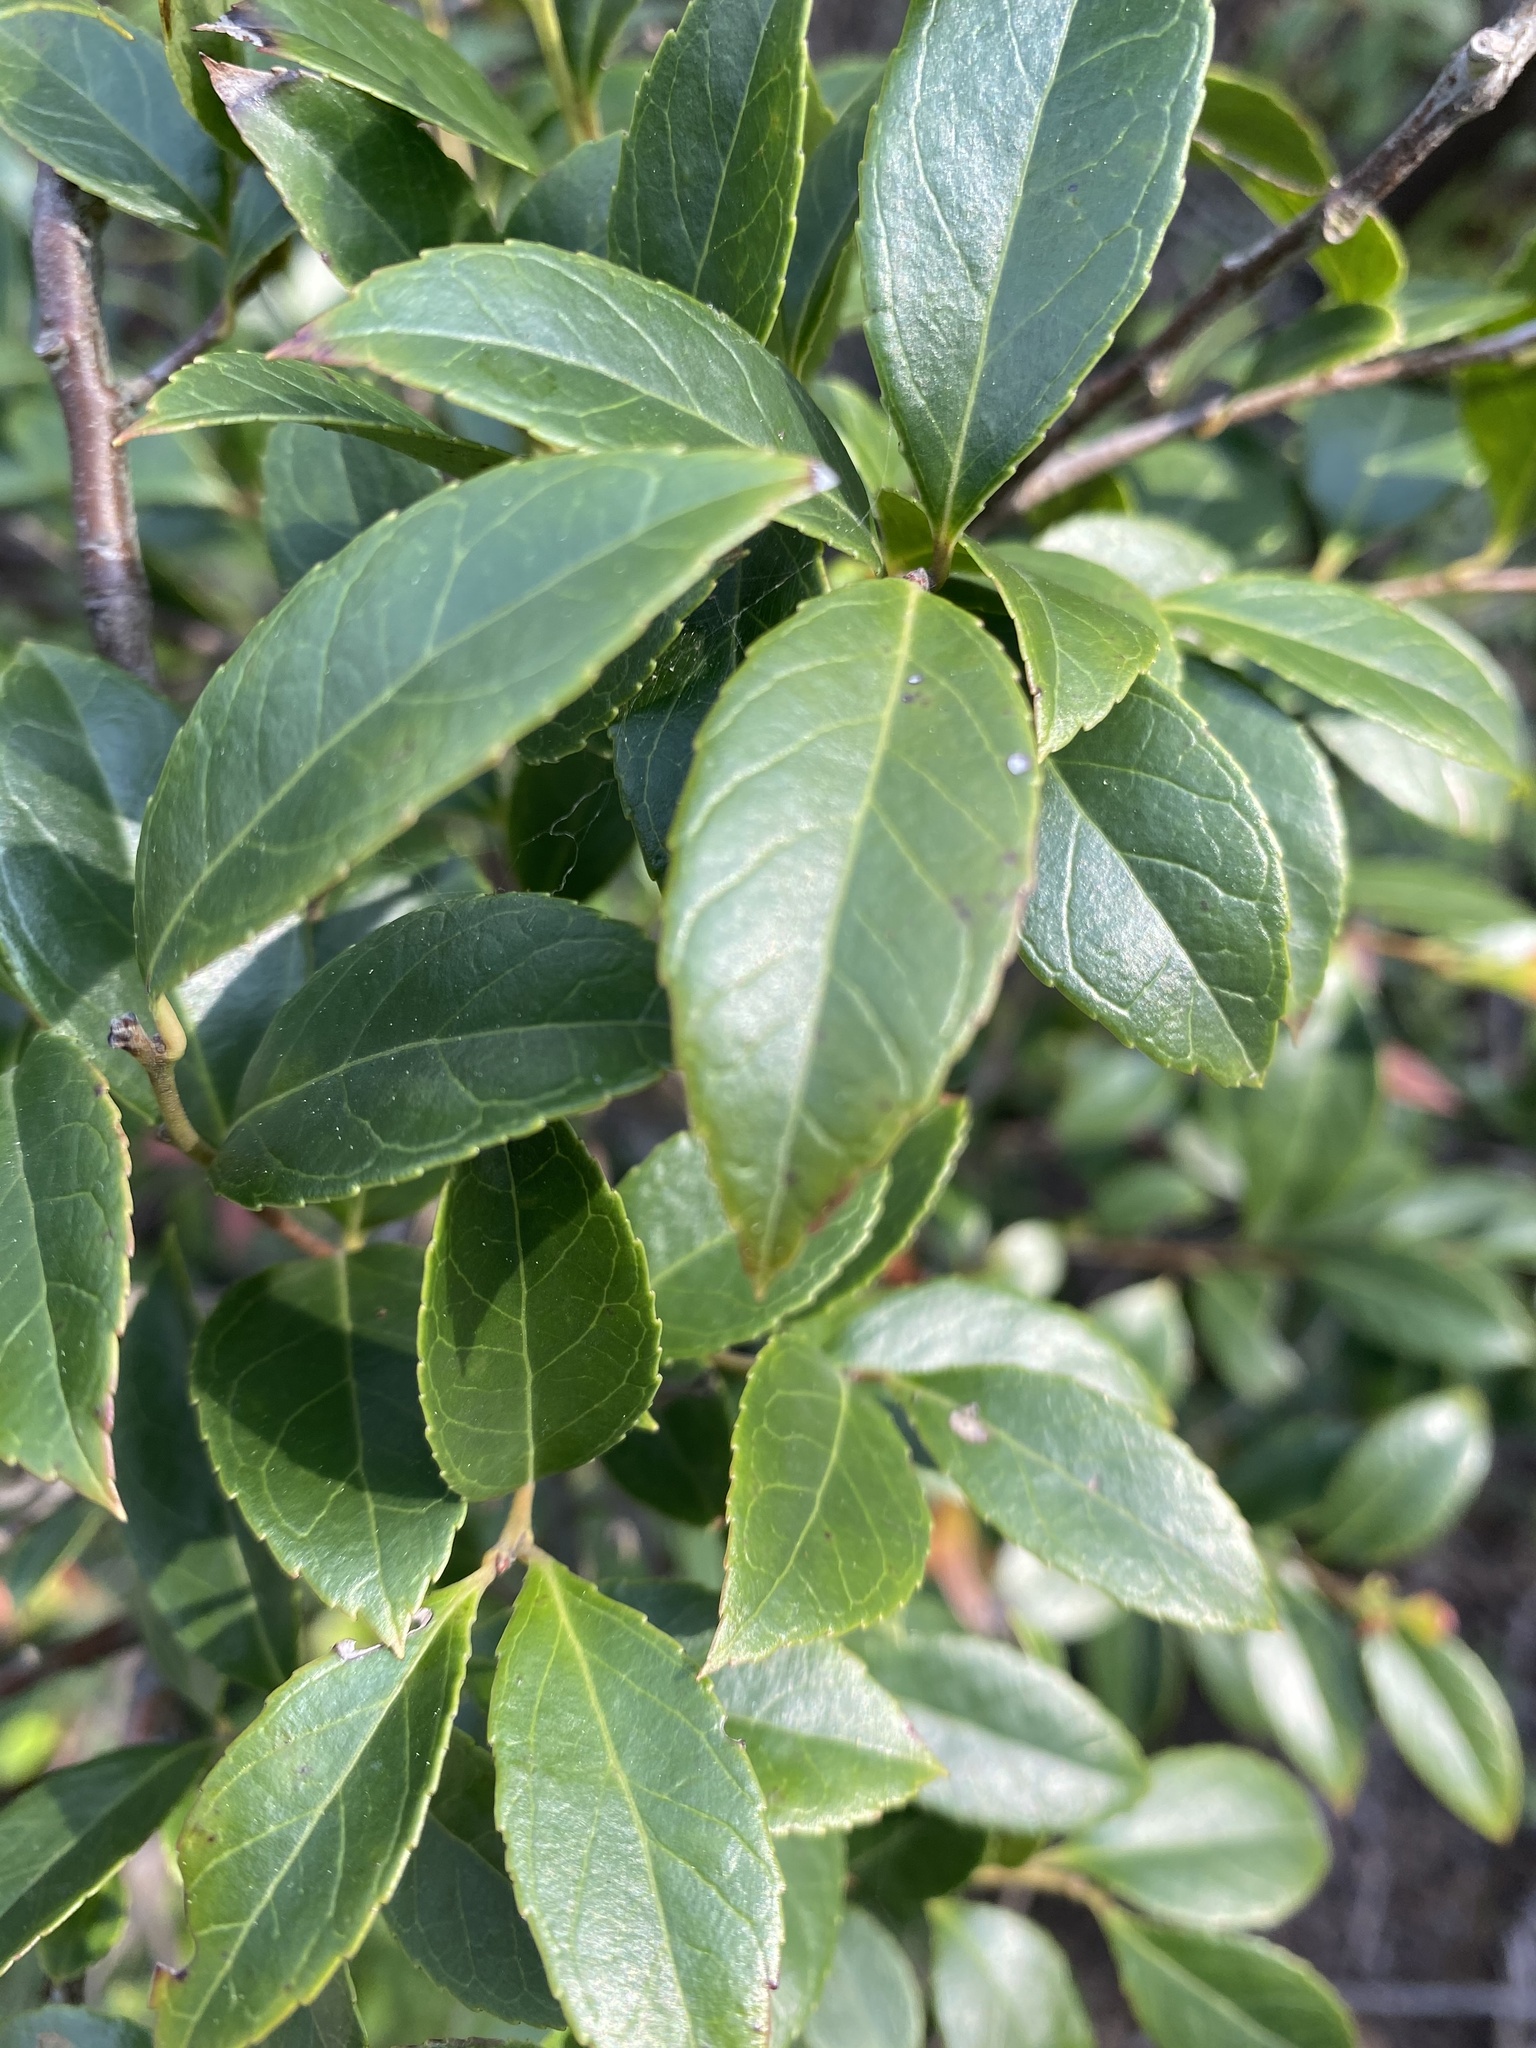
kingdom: Plantae
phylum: Tracheophyta
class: Magnoliopsida
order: Ericales
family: Ericaceae
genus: Vaccinium
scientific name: Vaccinium bracteatum
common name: Sea bilberry
